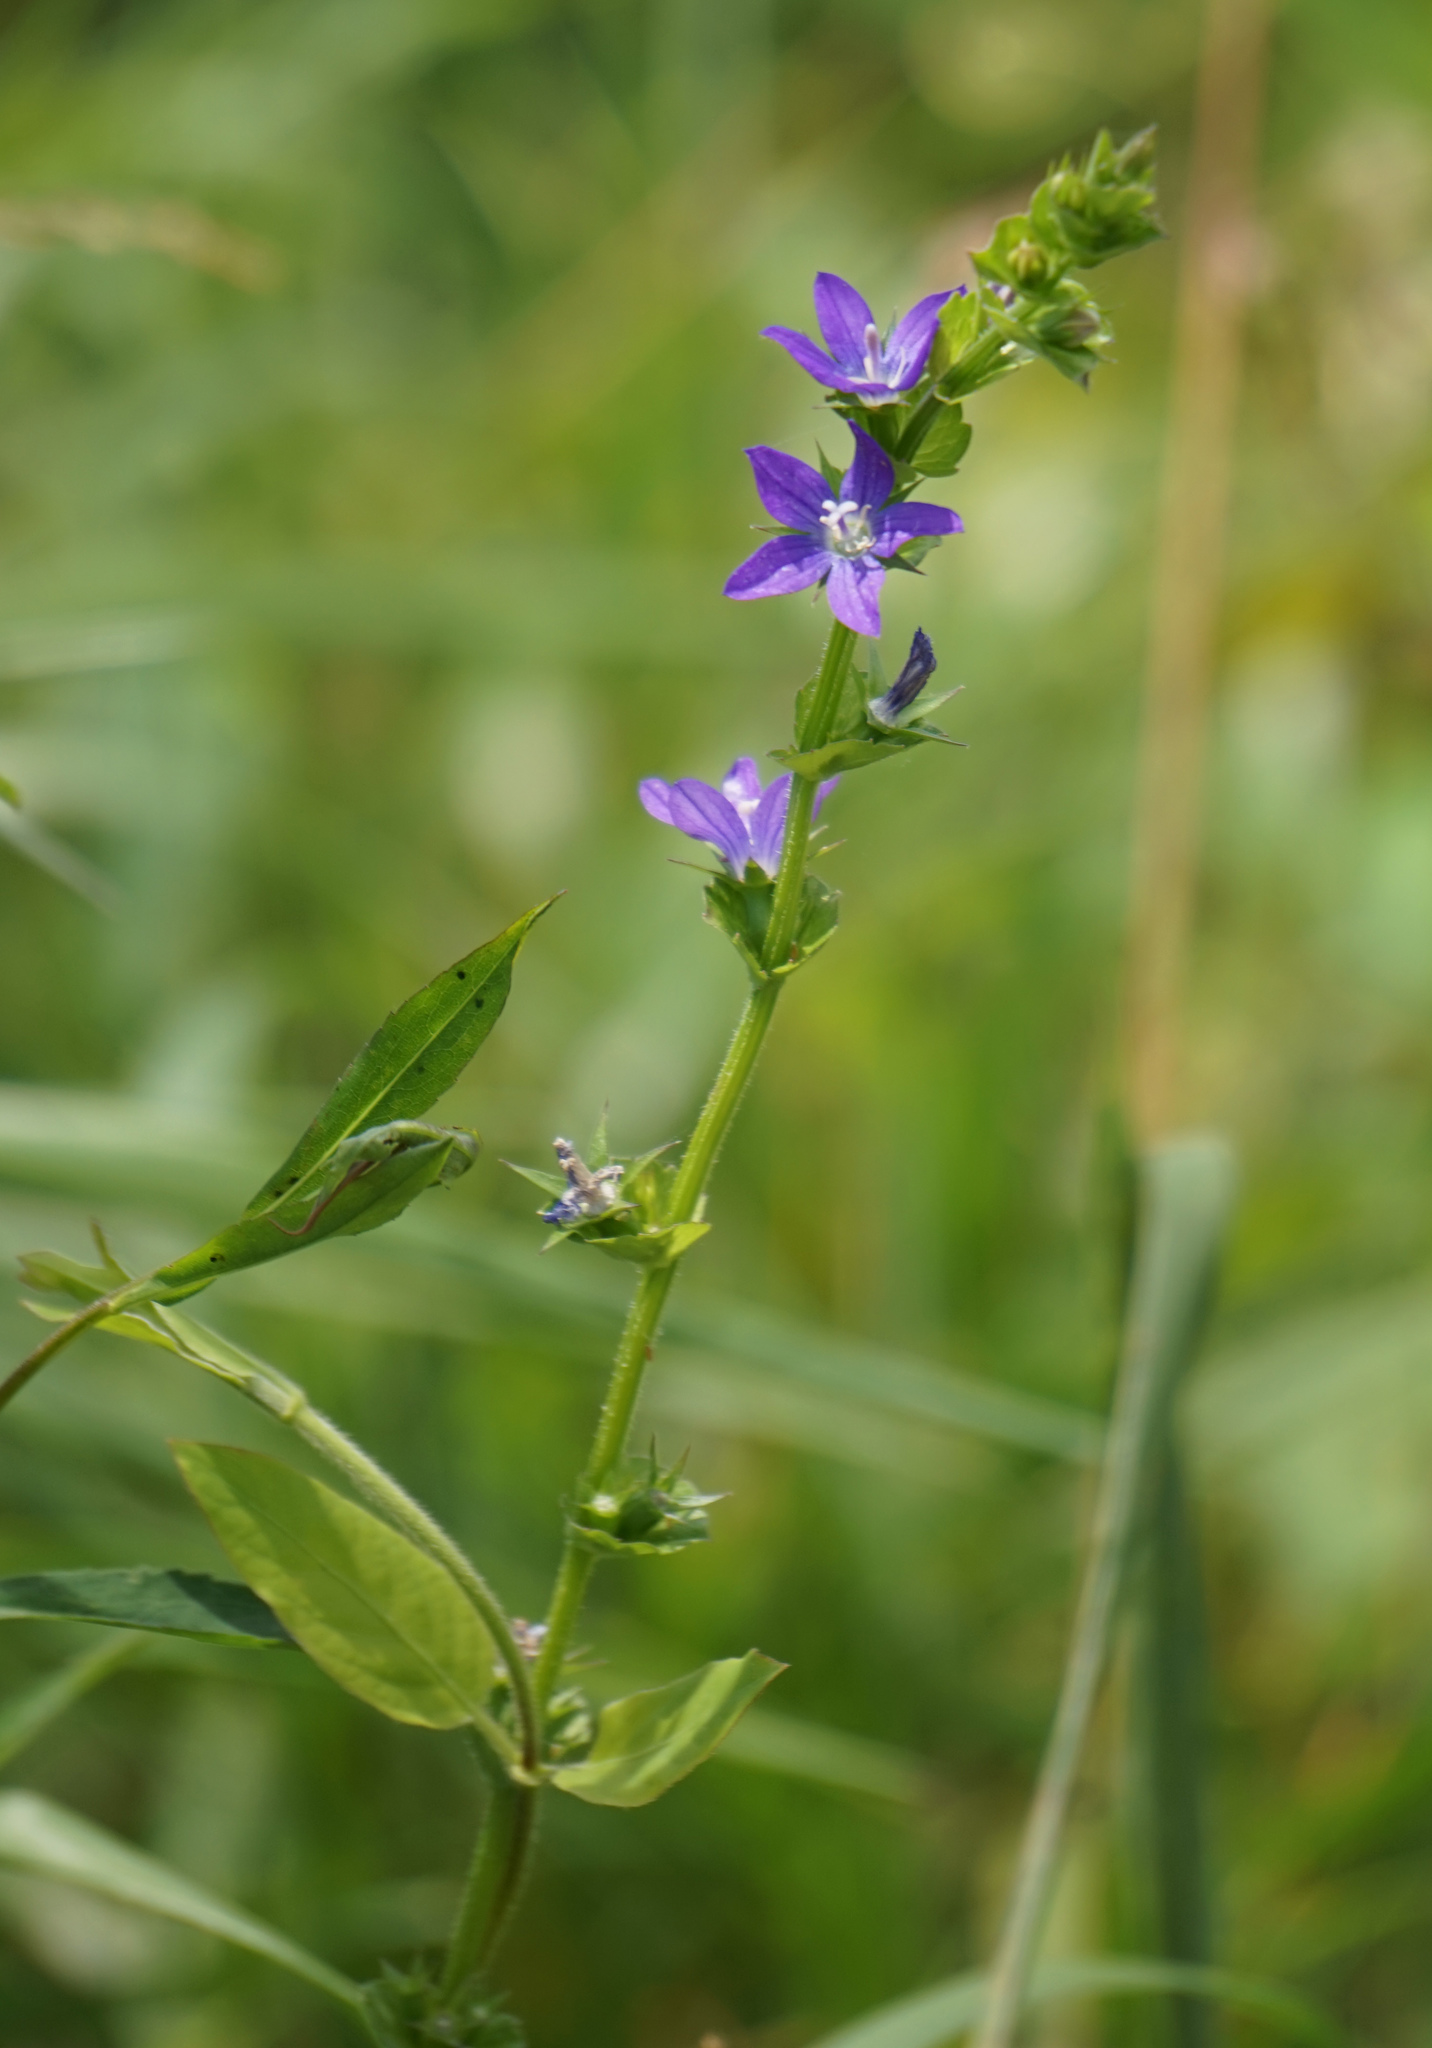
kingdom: Plantae
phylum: Tracheophyta
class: Magnoliopsida
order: Asterales
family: Campanulaceae
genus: Triodanis
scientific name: Triodanis perfoliata
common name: Clasping venus' looking-glass
